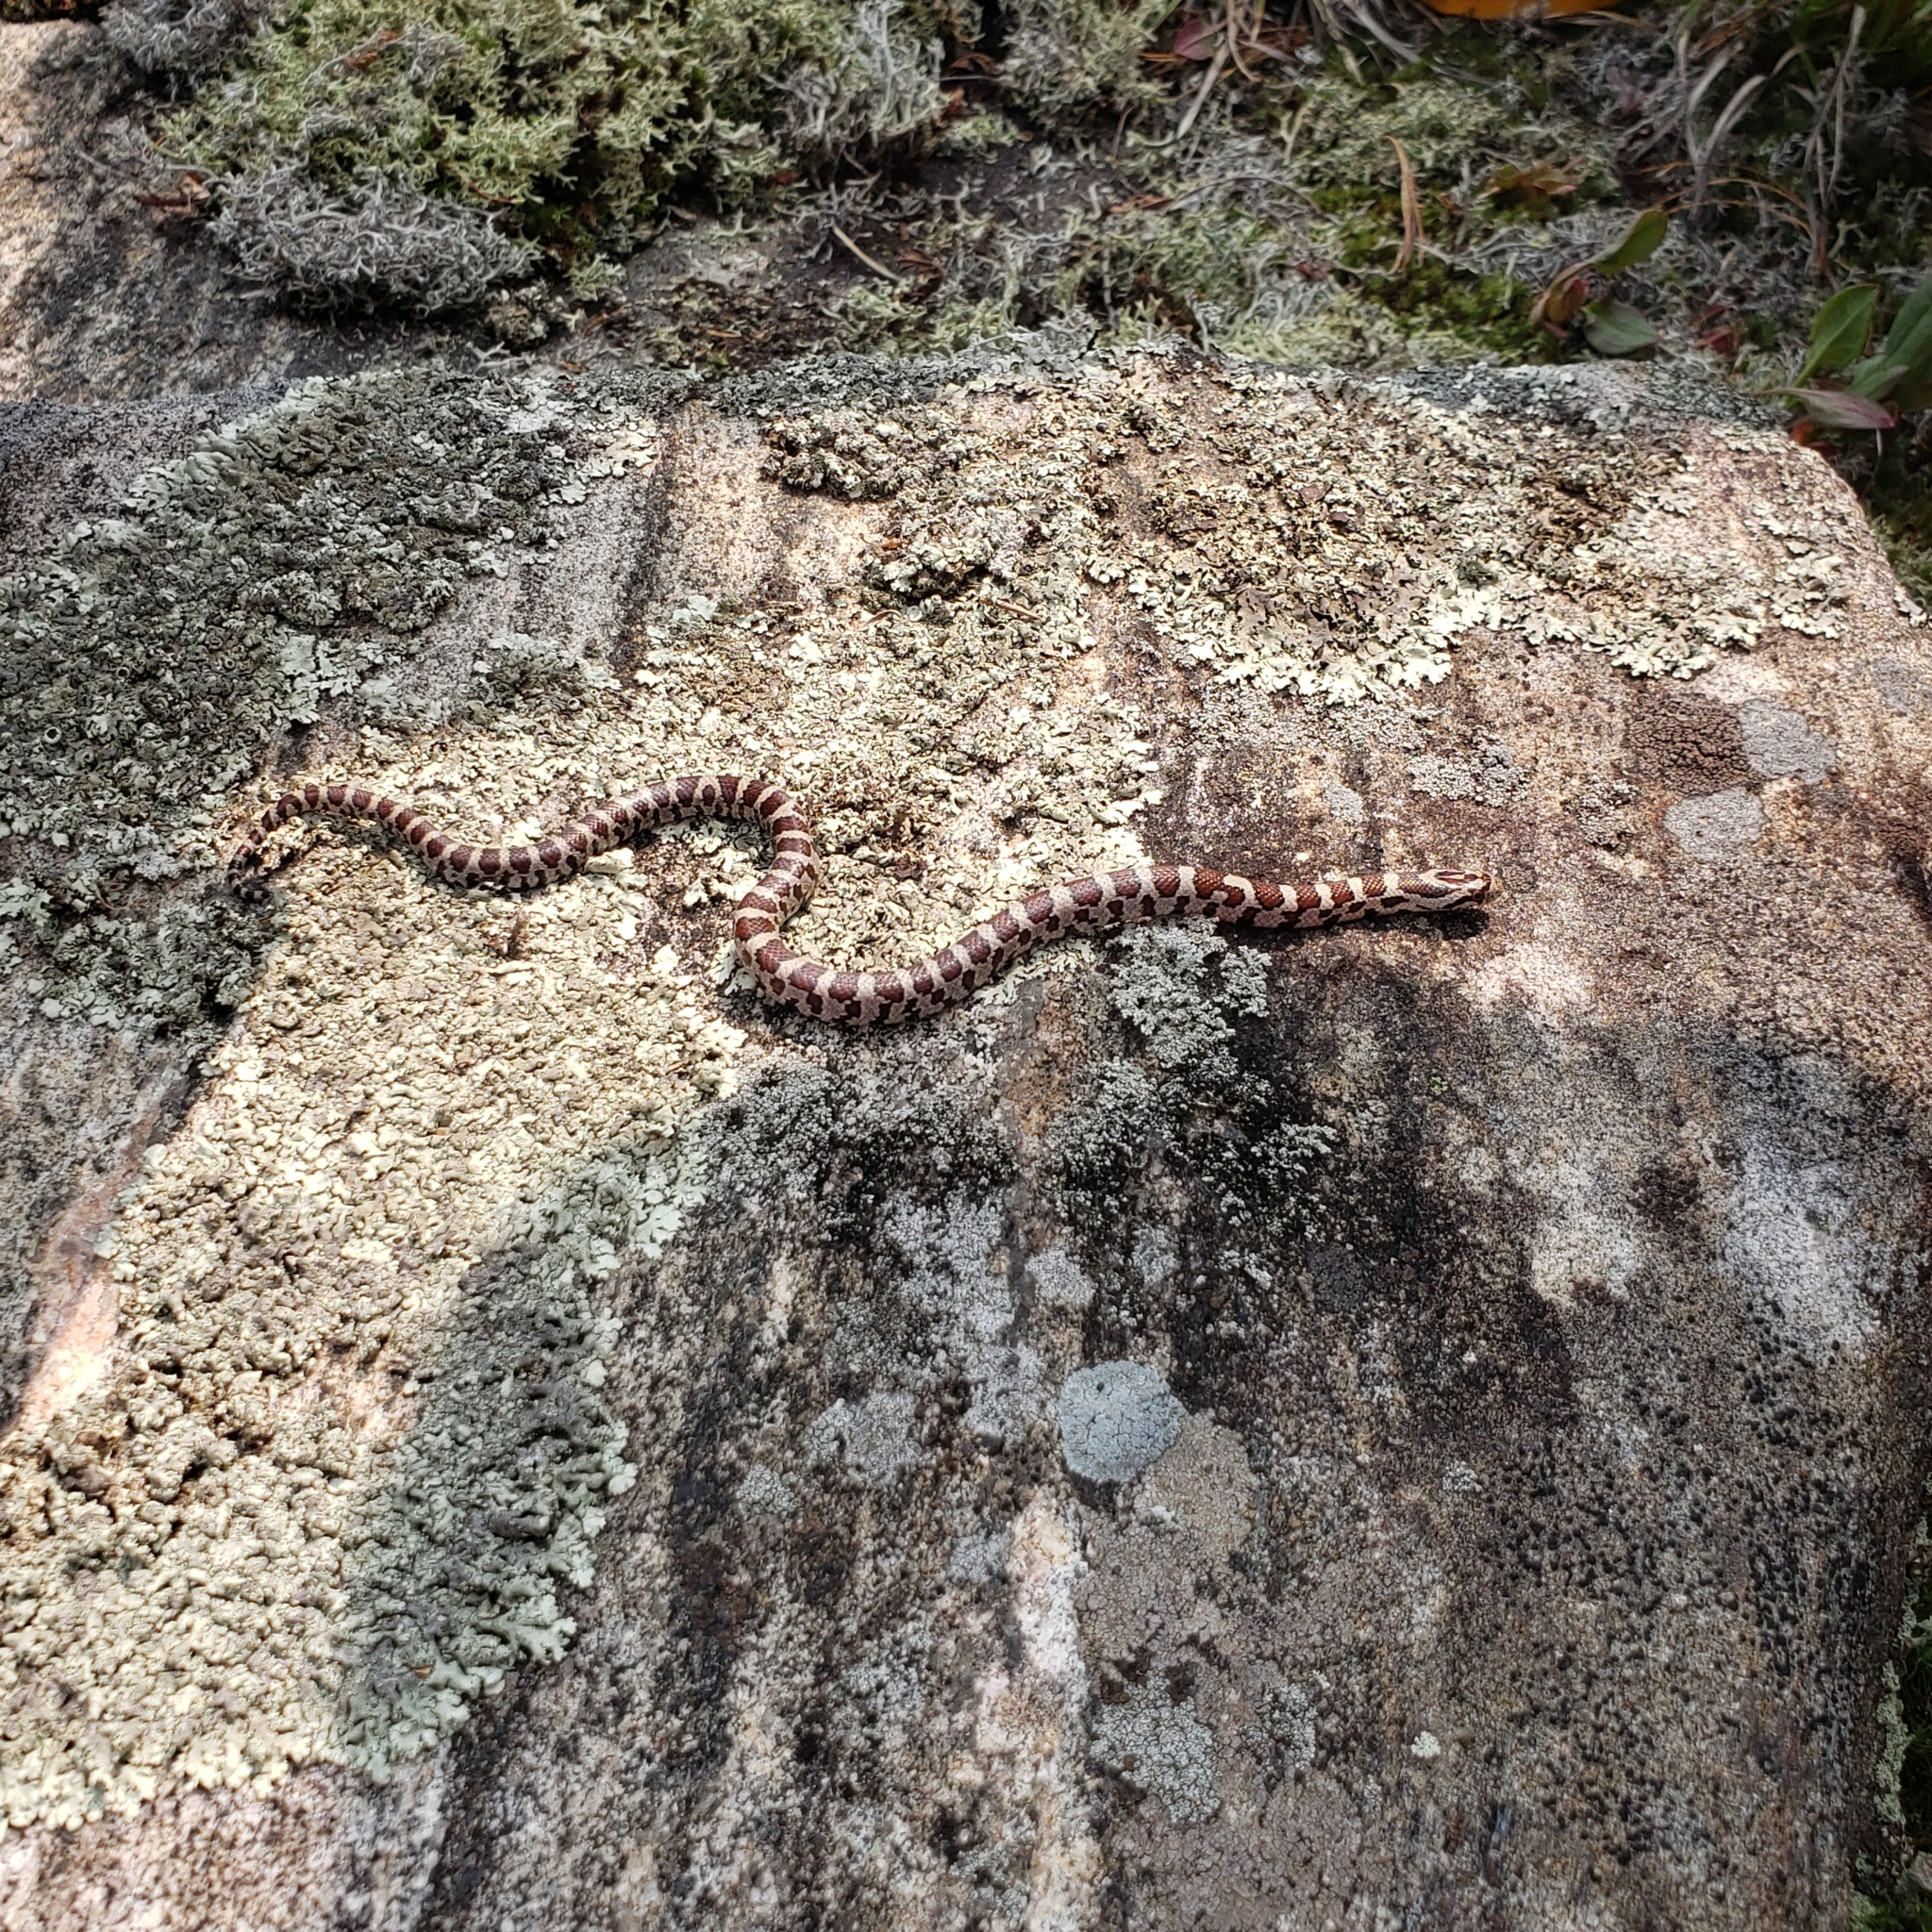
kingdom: Animalia
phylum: Chordata
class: Squamata
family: Colubridae
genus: Lampropeltis
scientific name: Lampropeltis triangulum
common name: Eastern milksnake
